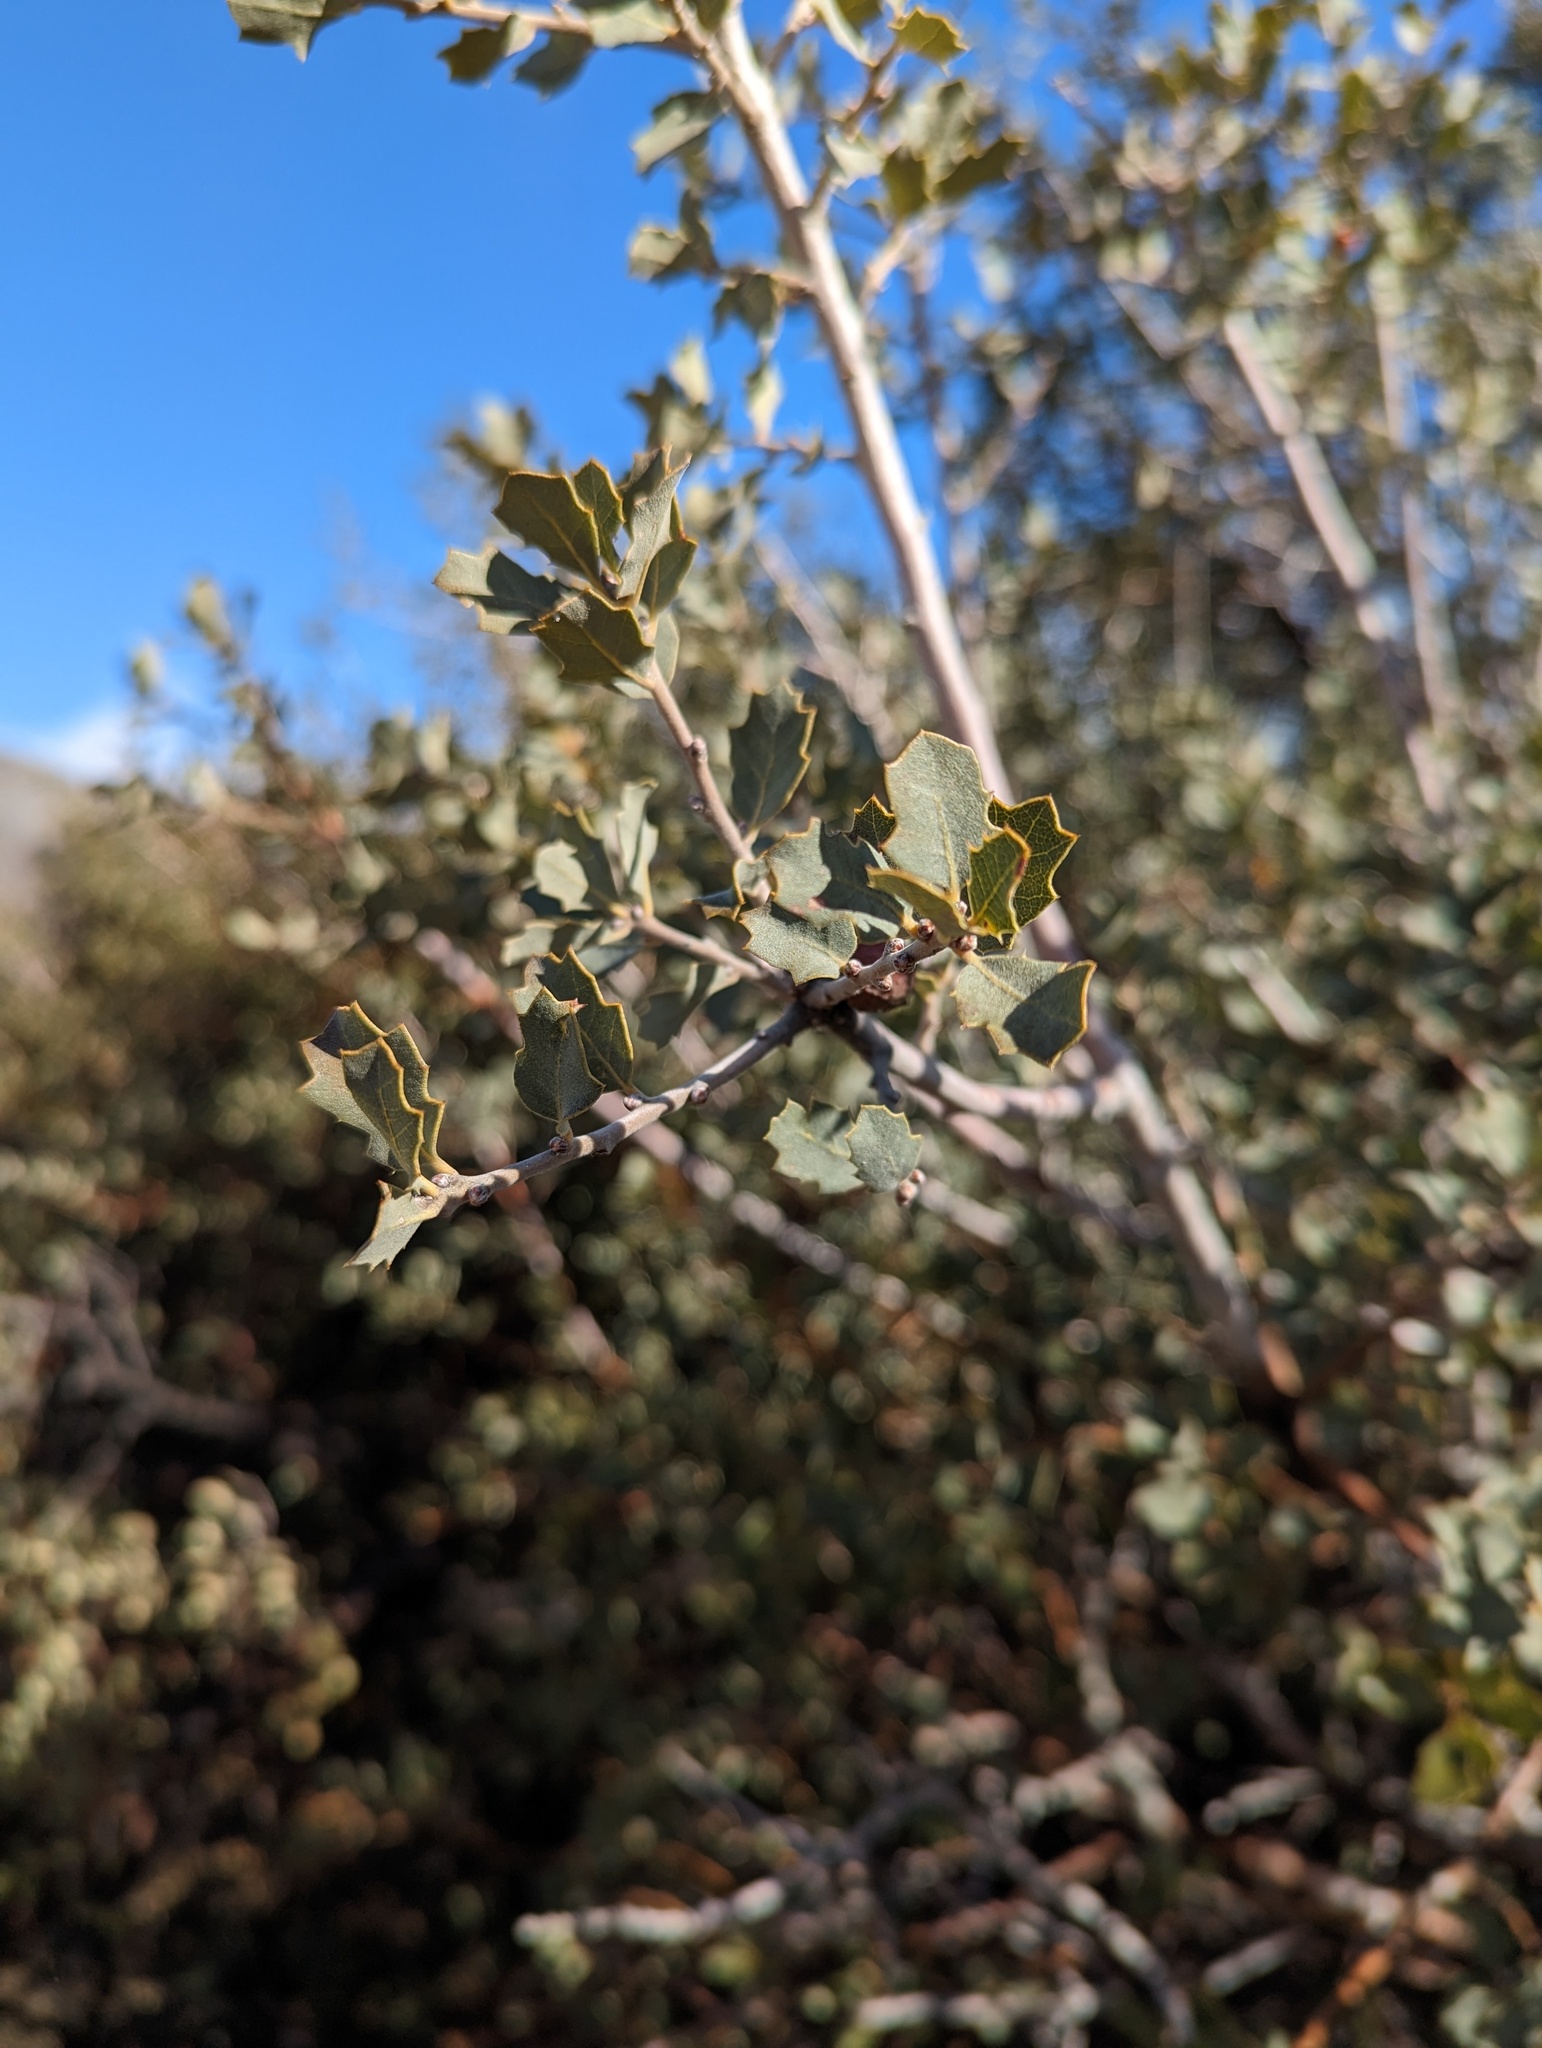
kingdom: Plantae
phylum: Tracheophyta
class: Magnoliopsida
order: Fagales
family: Fagaceae
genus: Quercus
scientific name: Quercus john-tuckeri
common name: Tucker's oak
